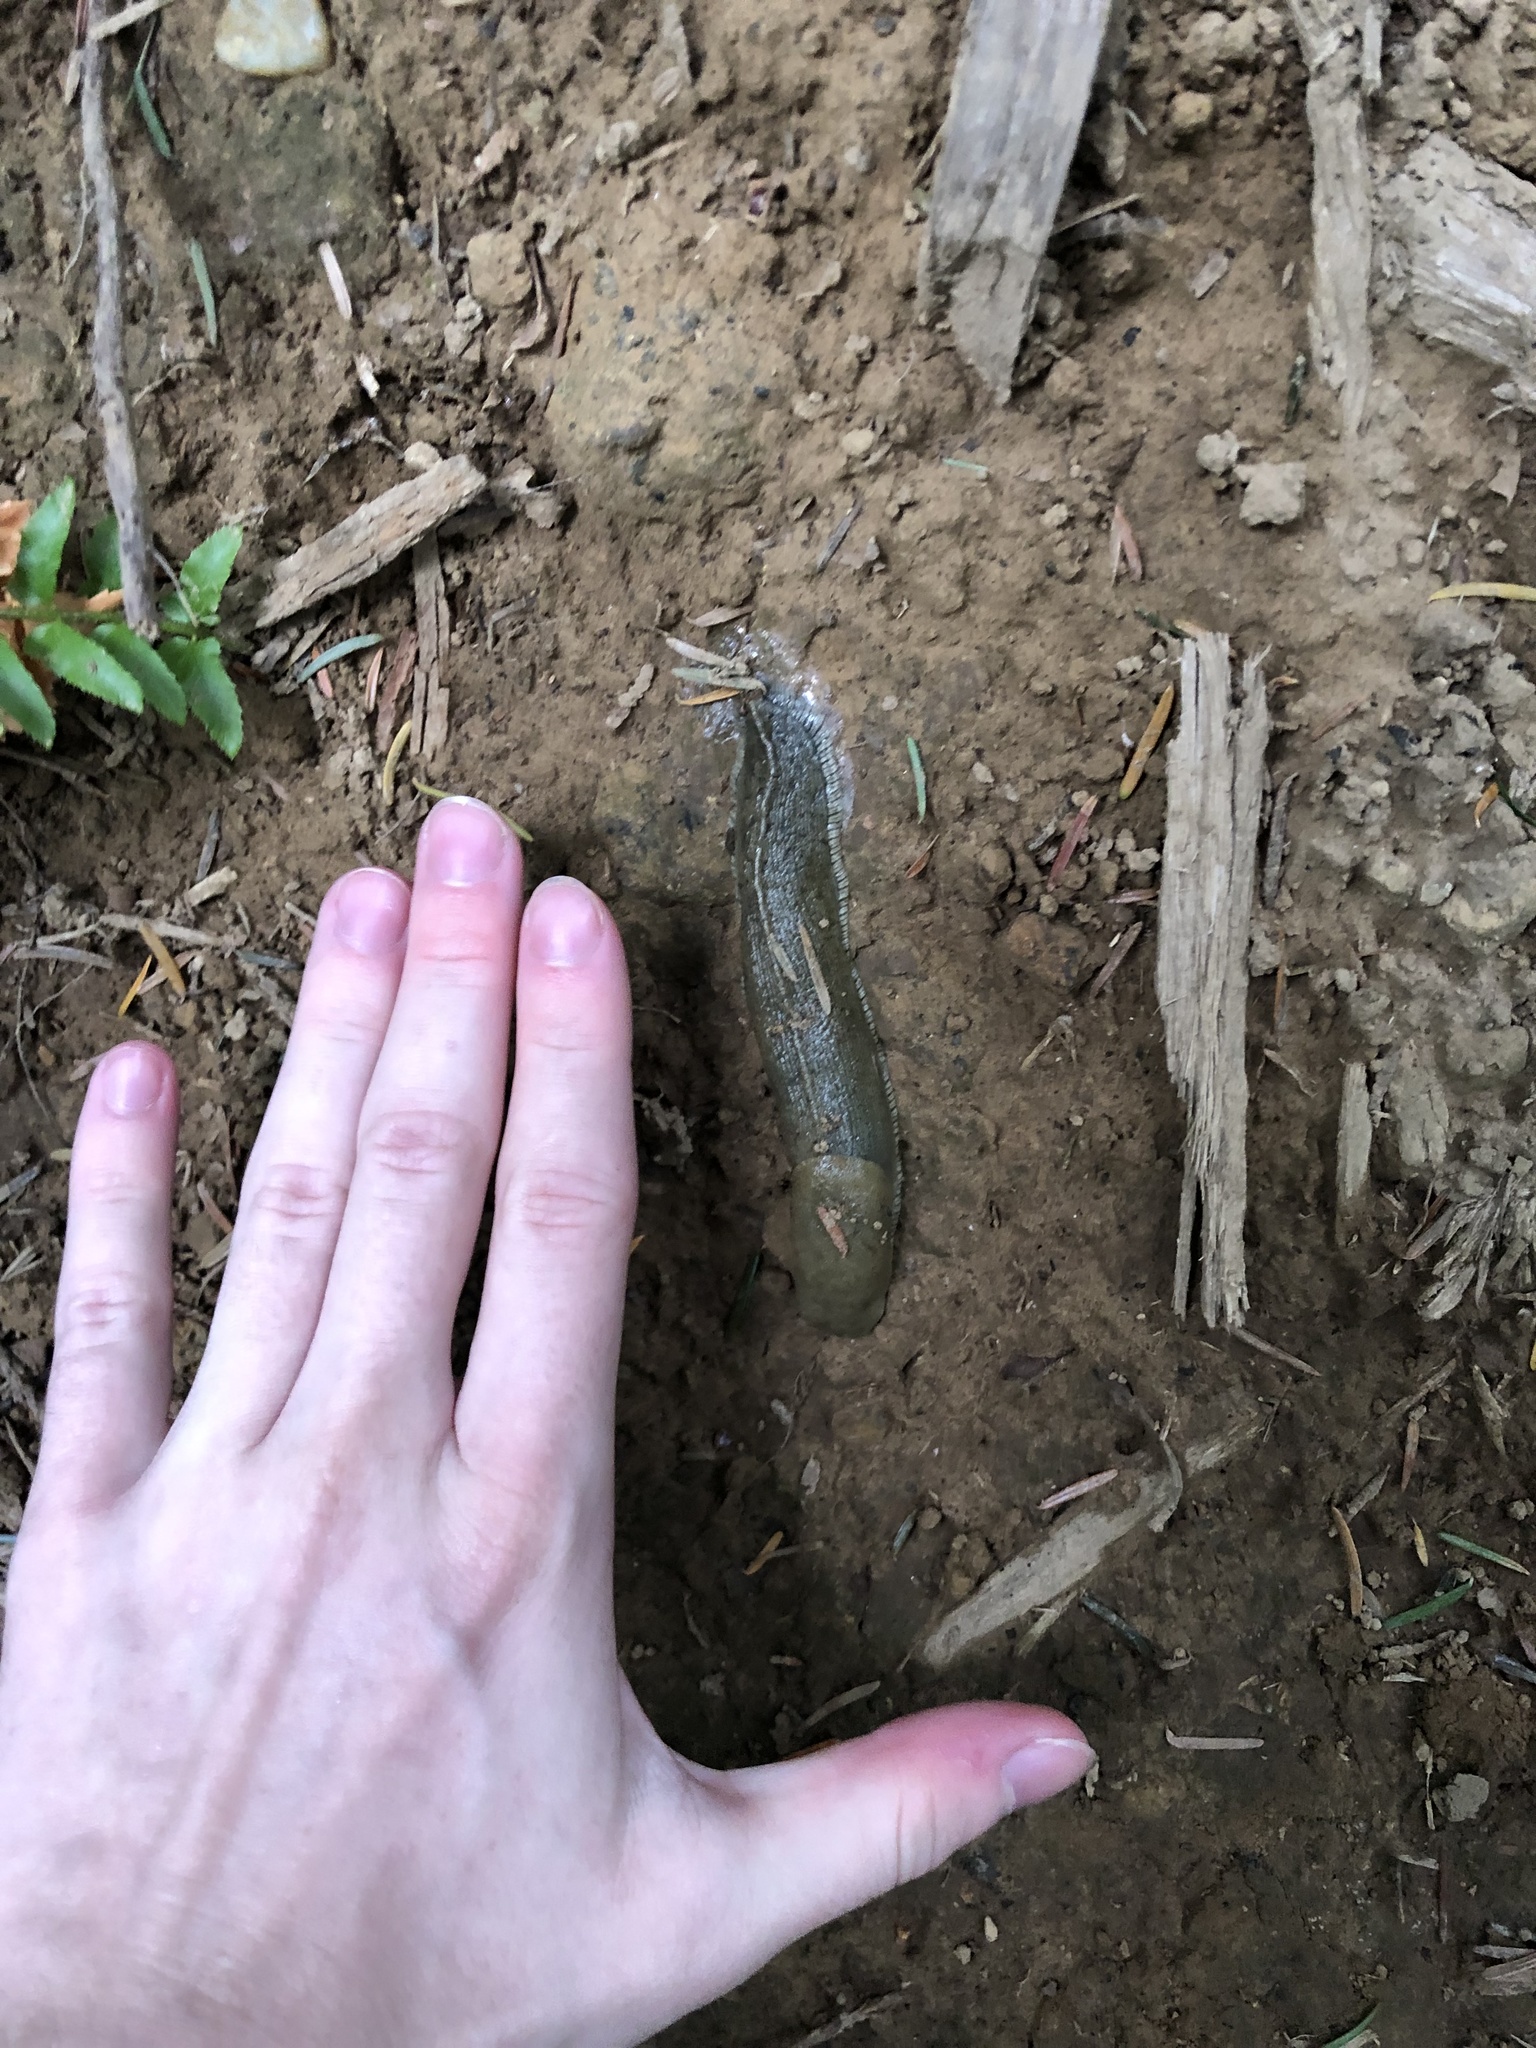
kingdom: Animalia
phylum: Mollusca
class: Gastropoda
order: Stylommatophora
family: Ariolimacidae
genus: Ariolimax
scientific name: Ariolimax columbianus
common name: Pacific banana slug
